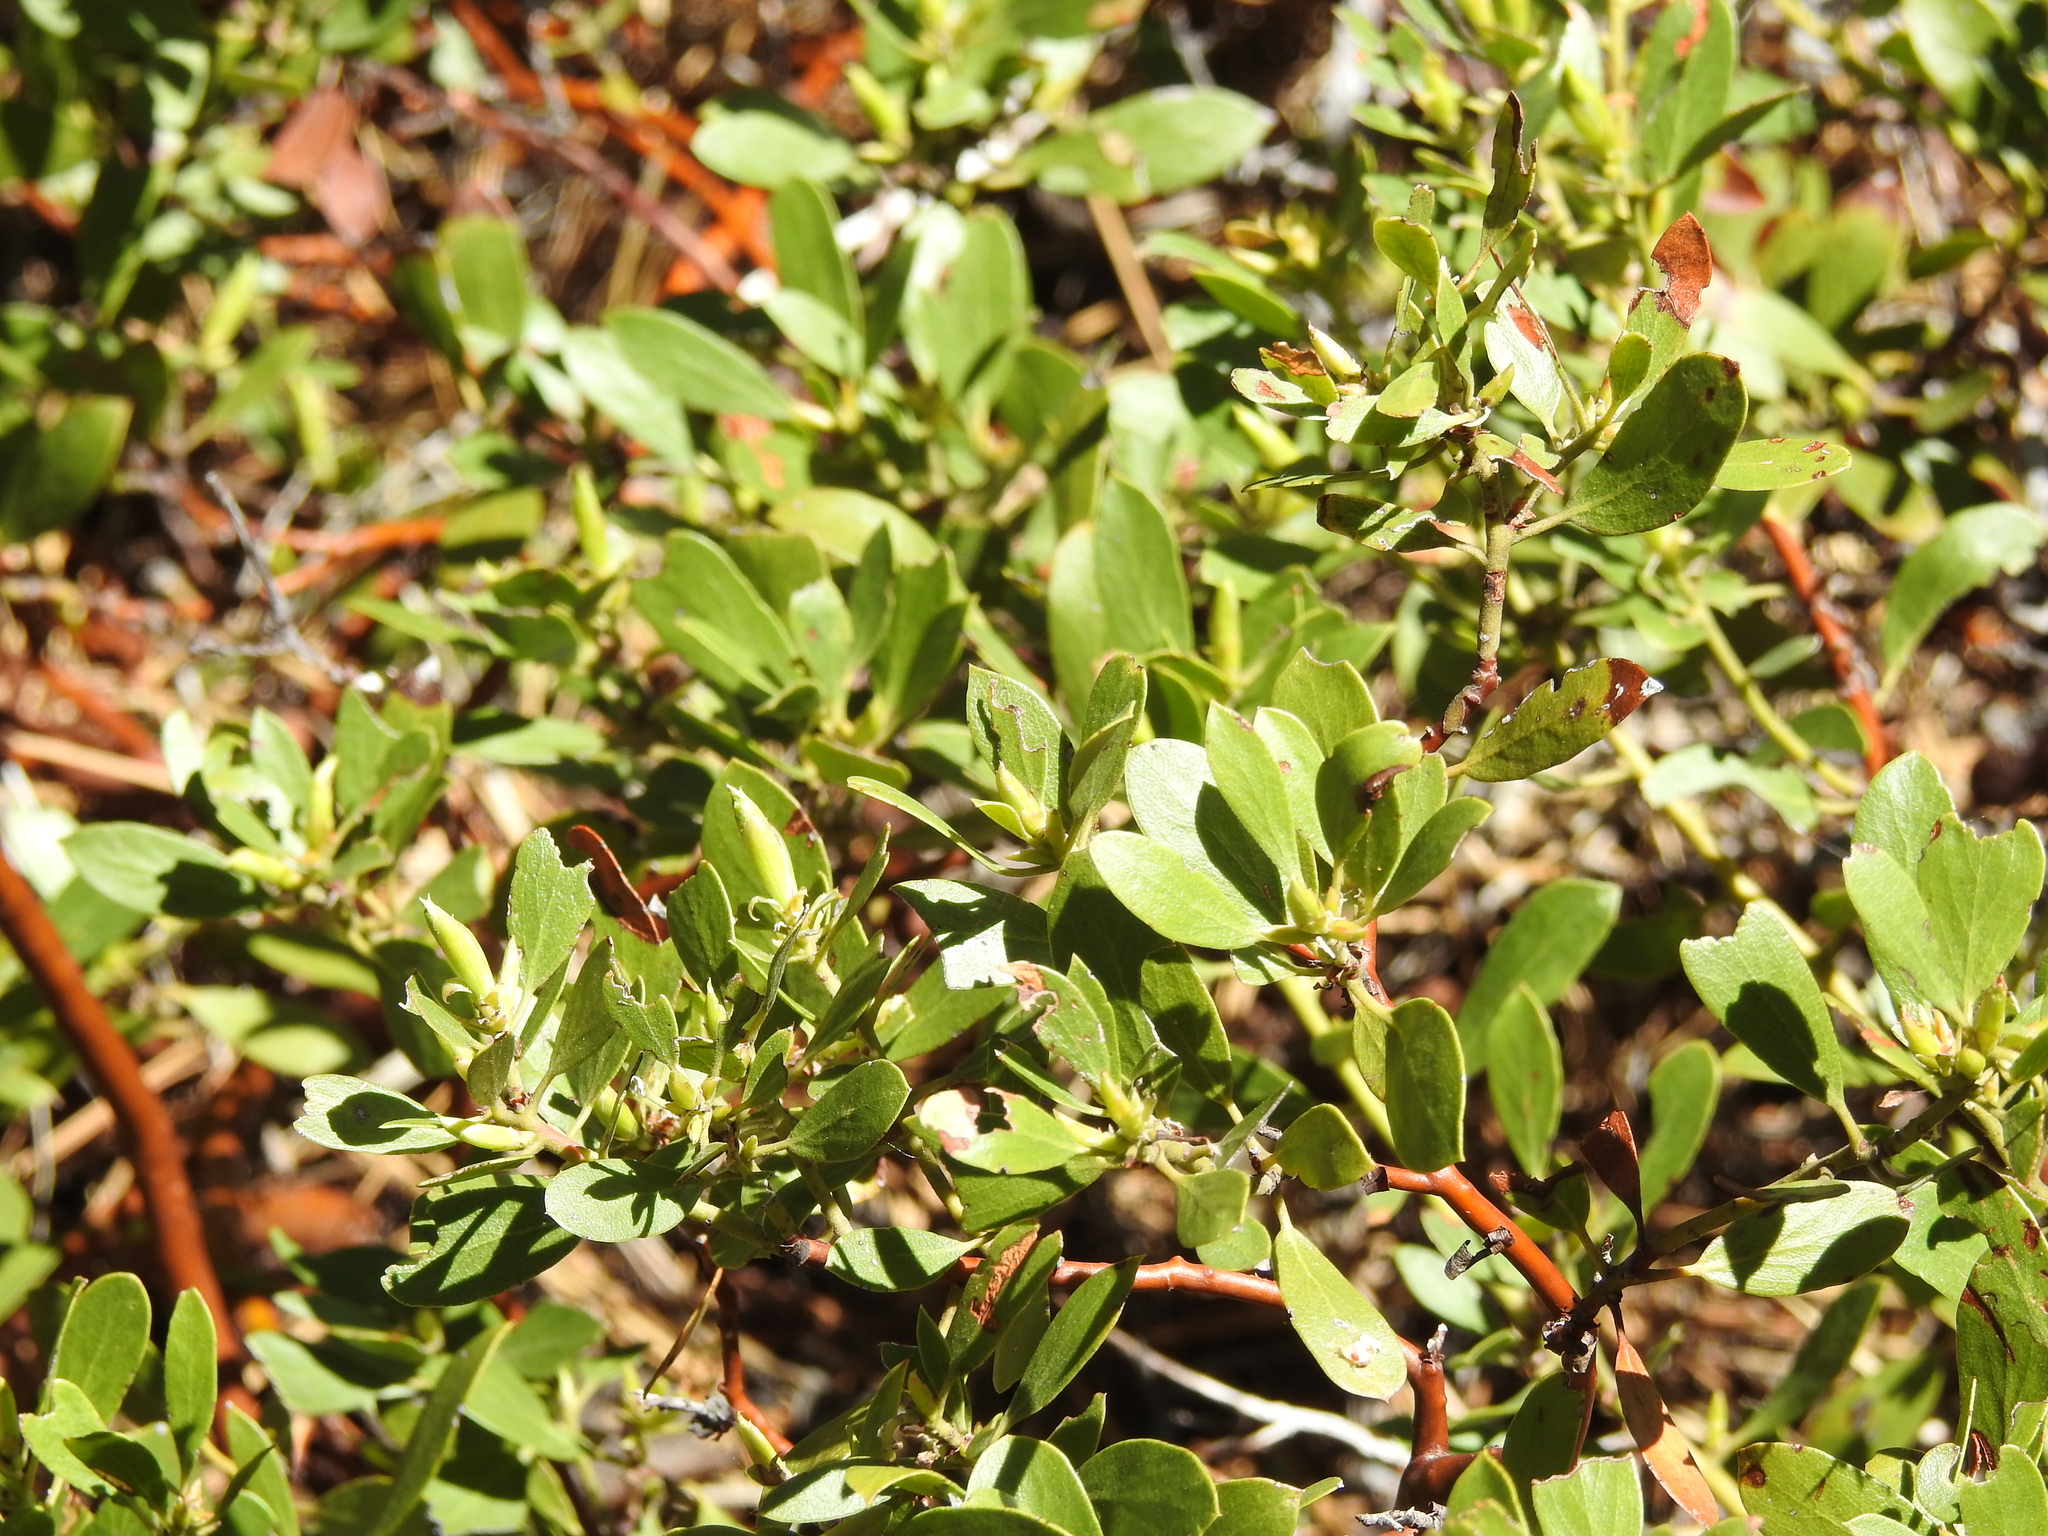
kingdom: Plantae
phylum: Tracheophyta
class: Magnoliopsida
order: Ericales
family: Ericaceae
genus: Arctostaphylos
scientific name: Arctostaphylos nevadensis
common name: Pinemat manzanita
